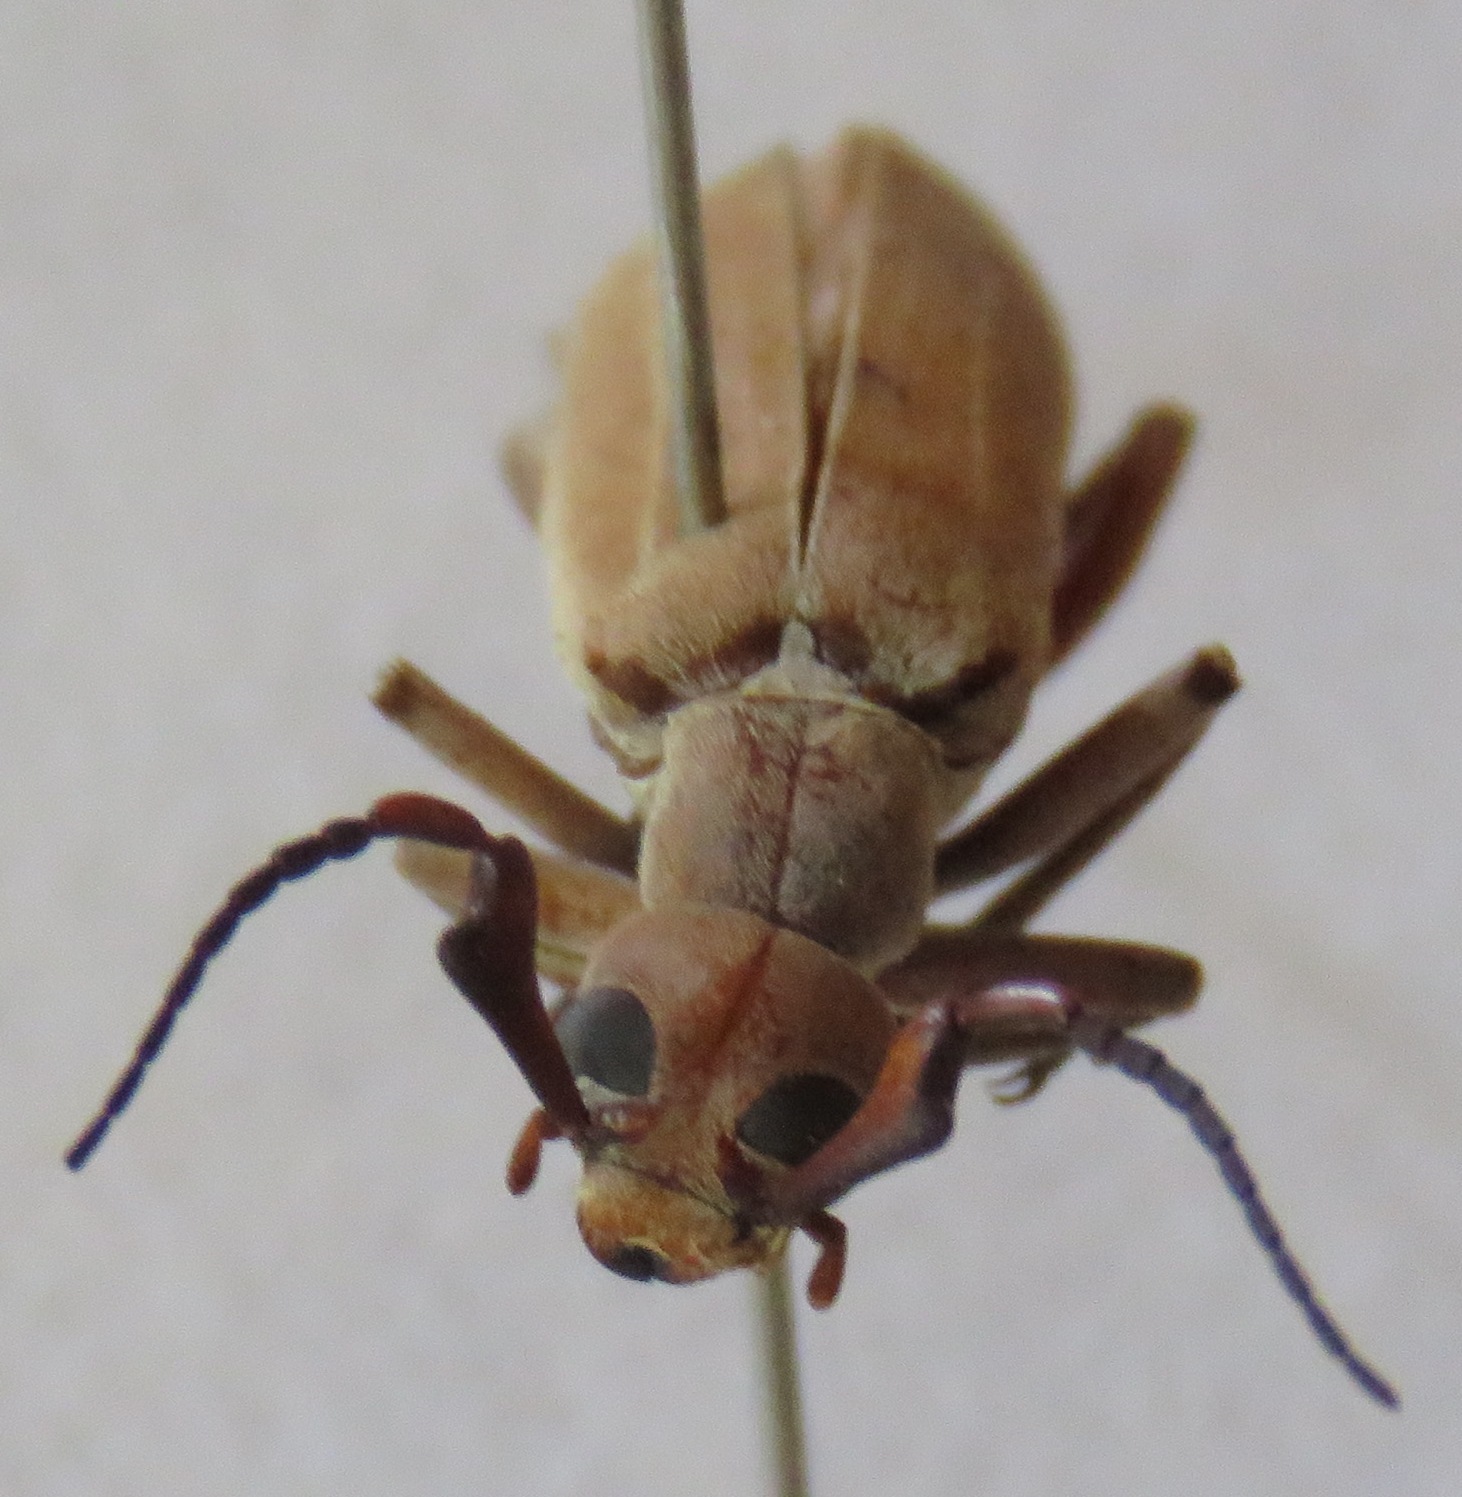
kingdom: Animalia
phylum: Arthropoda
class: Insecta
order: Coleoptera
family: Meloidae
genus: Epicauta
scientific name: Epicauta distorta
